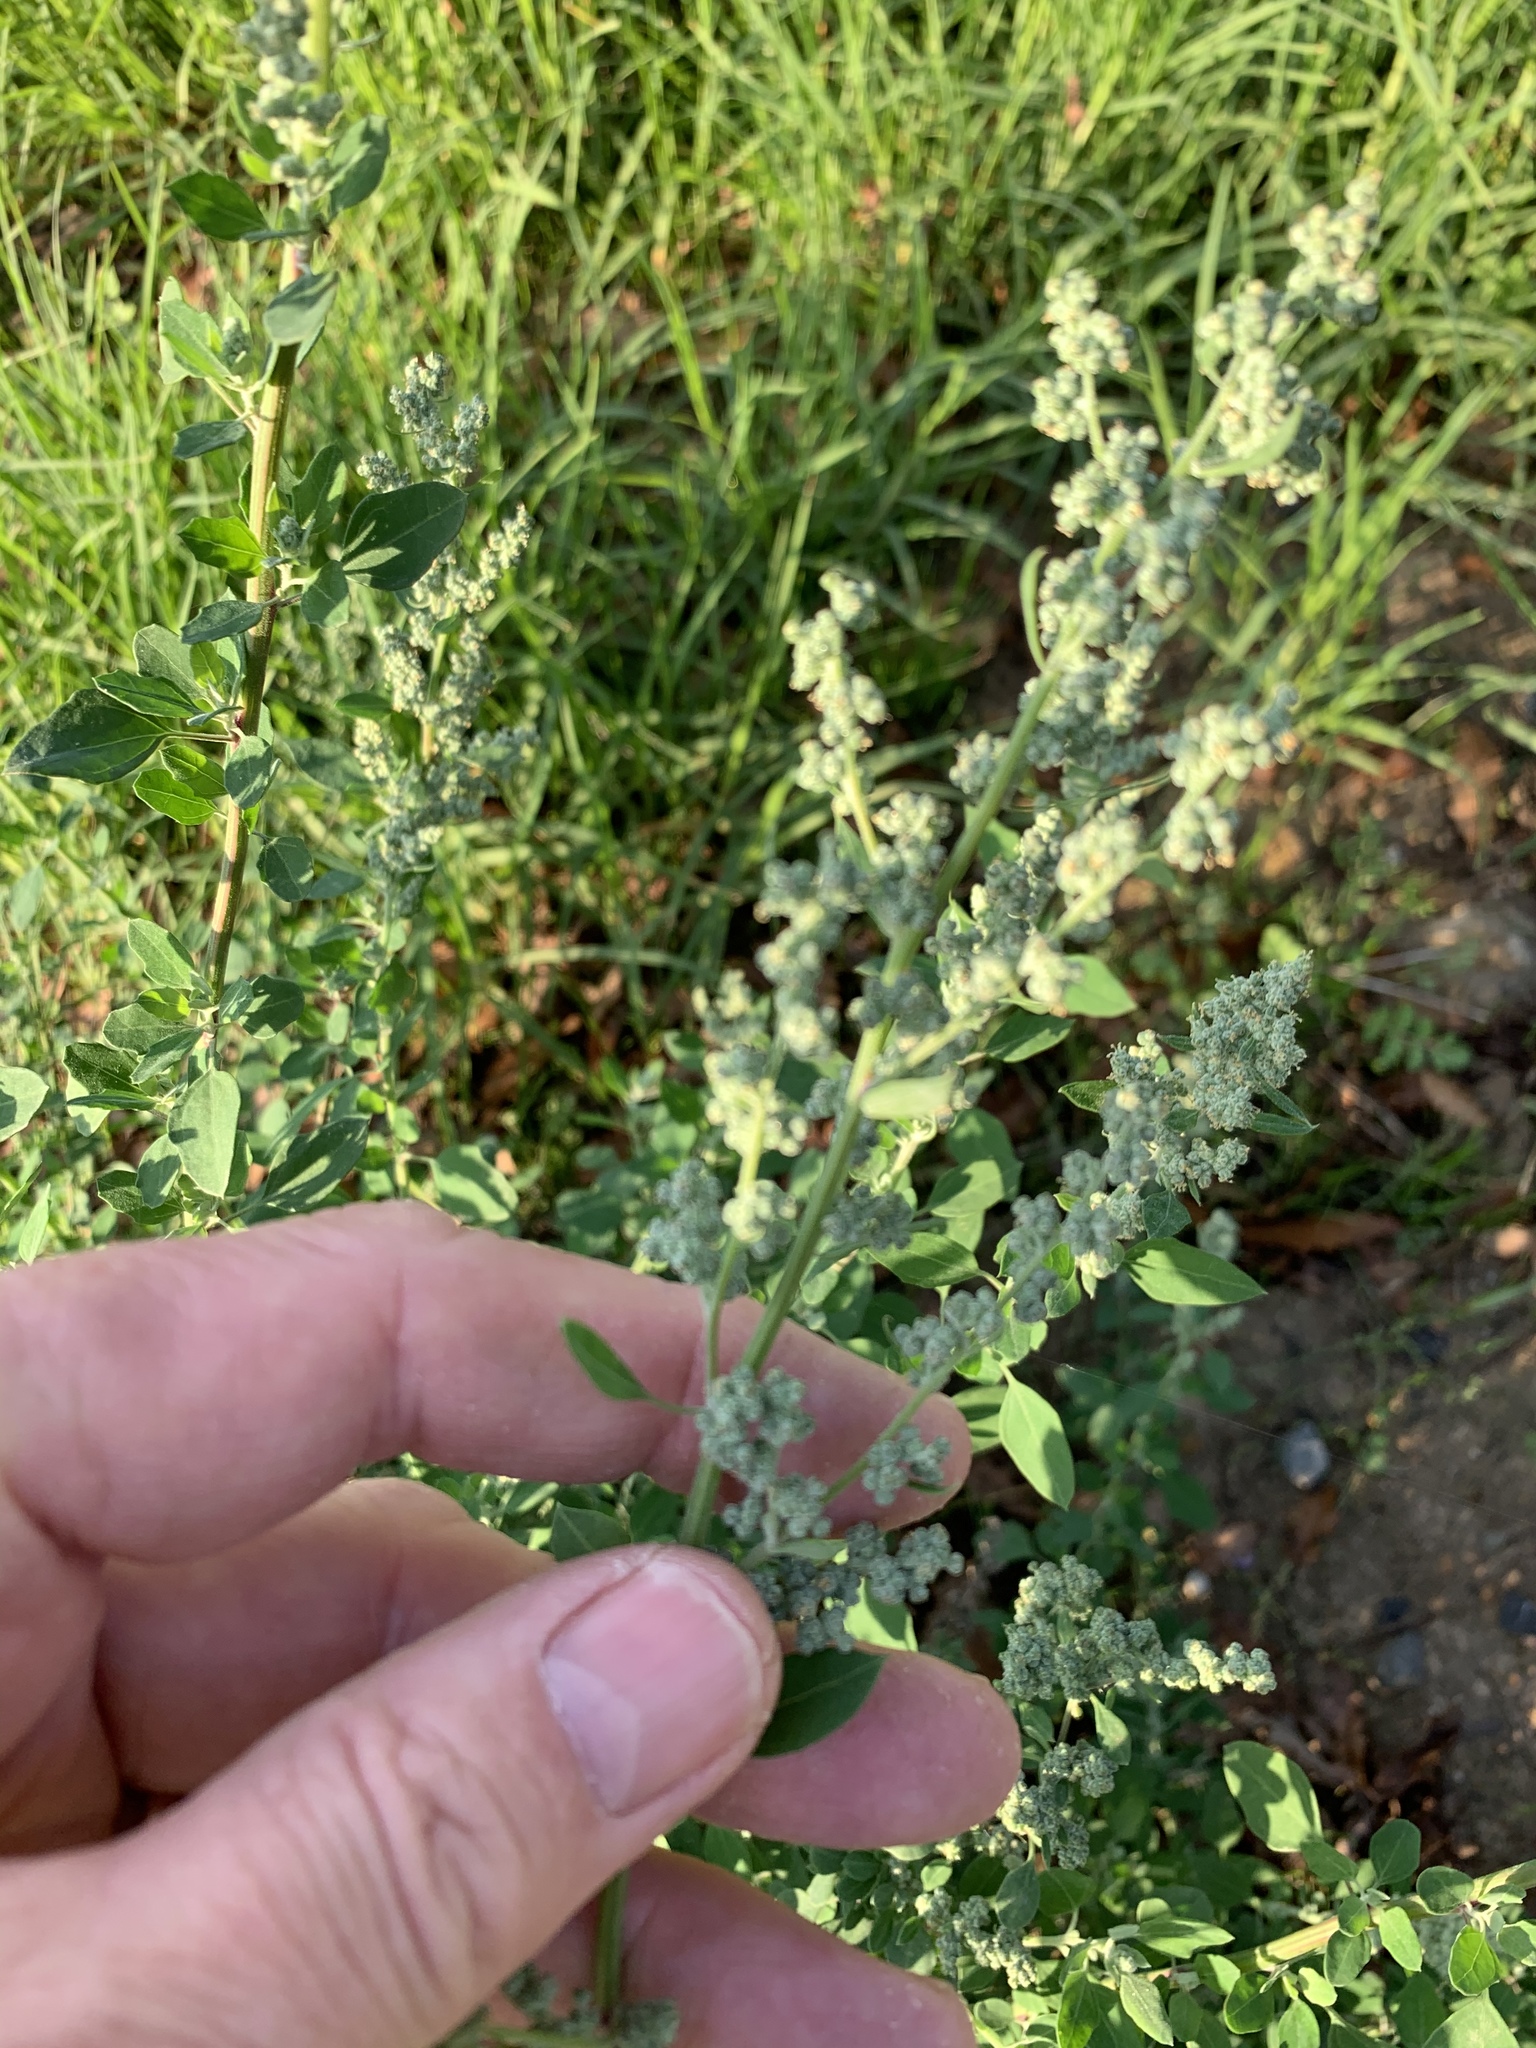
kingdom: Plantae
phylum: Tracheophyta
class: Magnoliopsida
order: Caryophyllales
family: Amaranthaceae
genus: Chenopodium
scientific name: Chenopodium album
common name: Fat-hen
